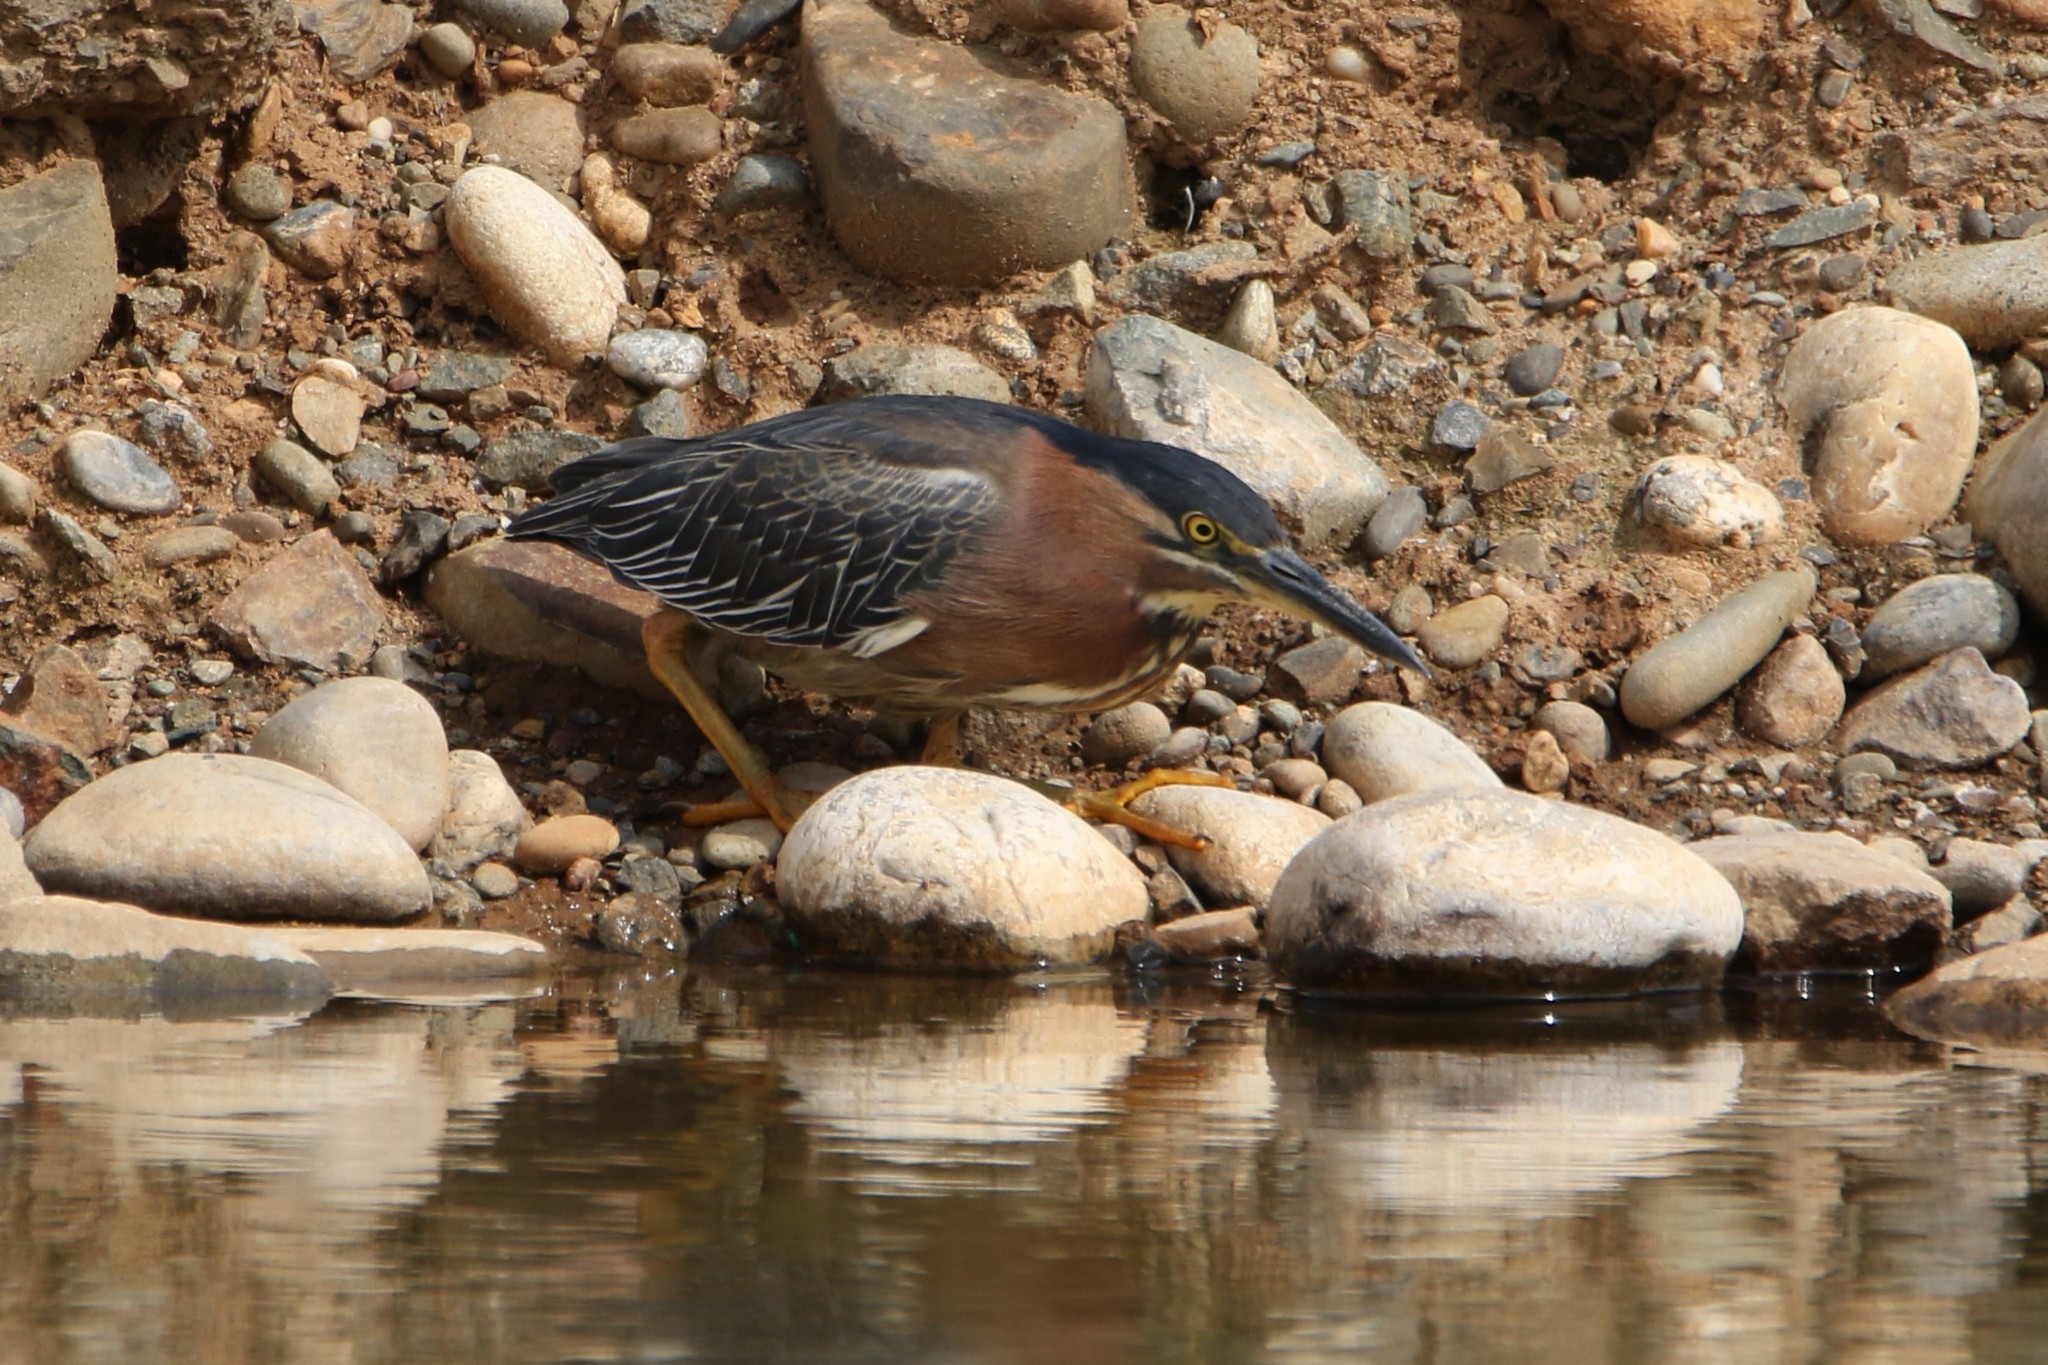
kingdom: Animalia
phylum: Chordata
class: Aves
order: Pelecaniformes
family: Ardeidae
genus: Butorides
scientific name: Butorides virescens
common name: Green heron
